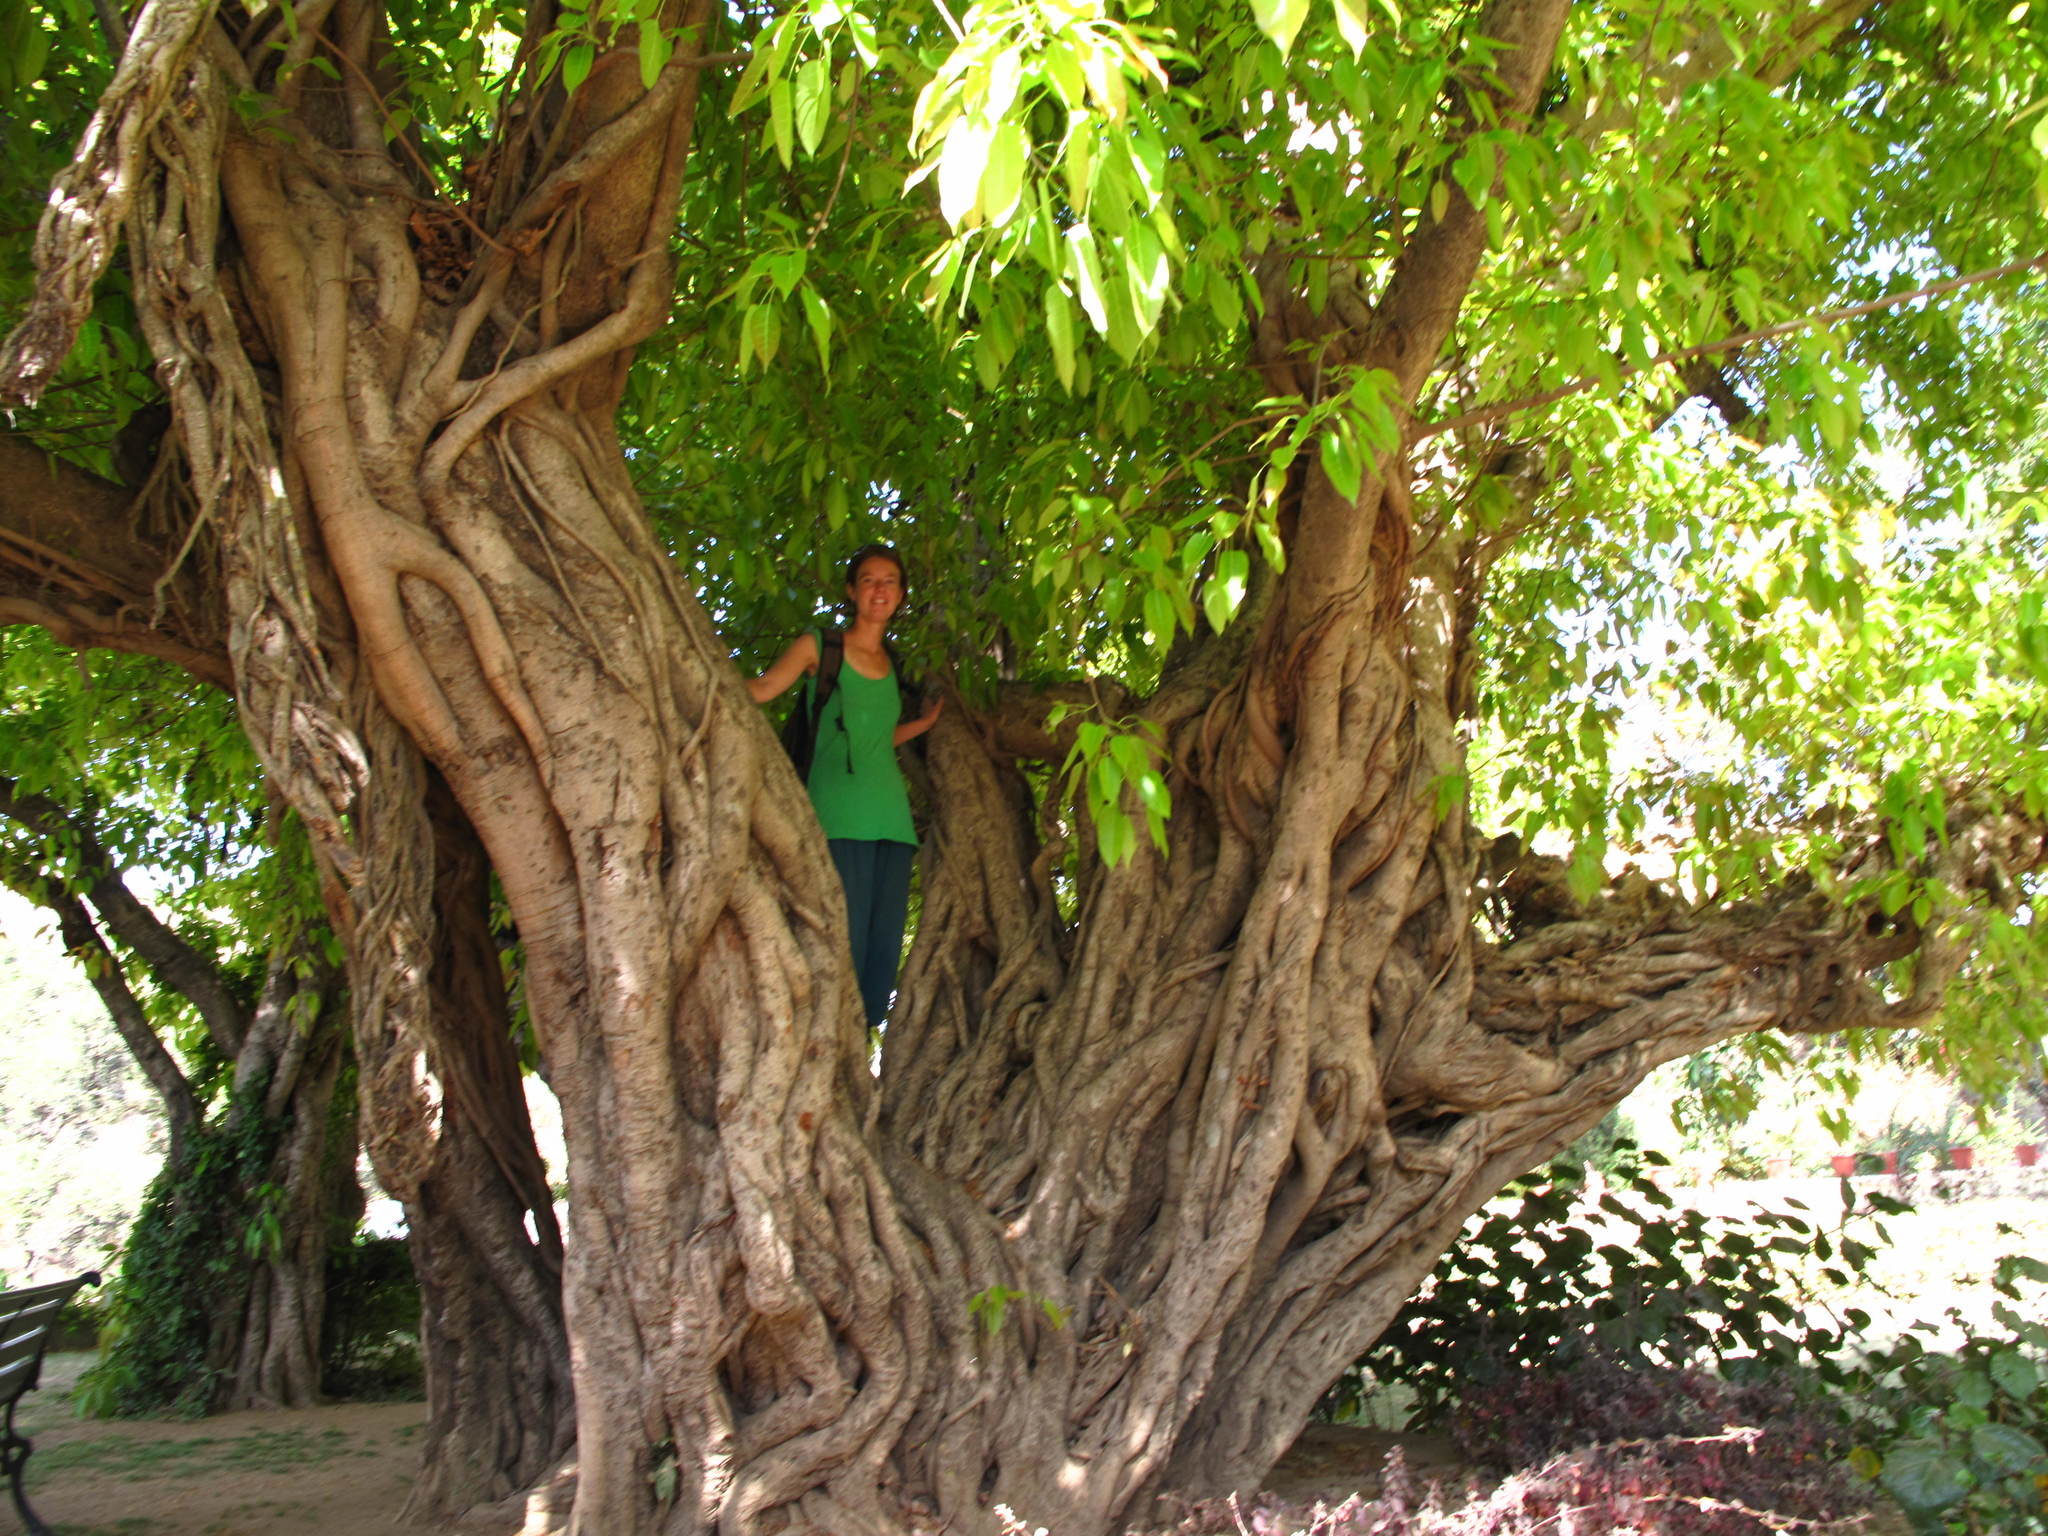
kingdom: Plantae
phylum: Tracheophyta
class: Magnoliopsida
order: Rosales
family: Moraceae
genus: Ficus
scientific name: Ficus virens
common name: Spotted fig
